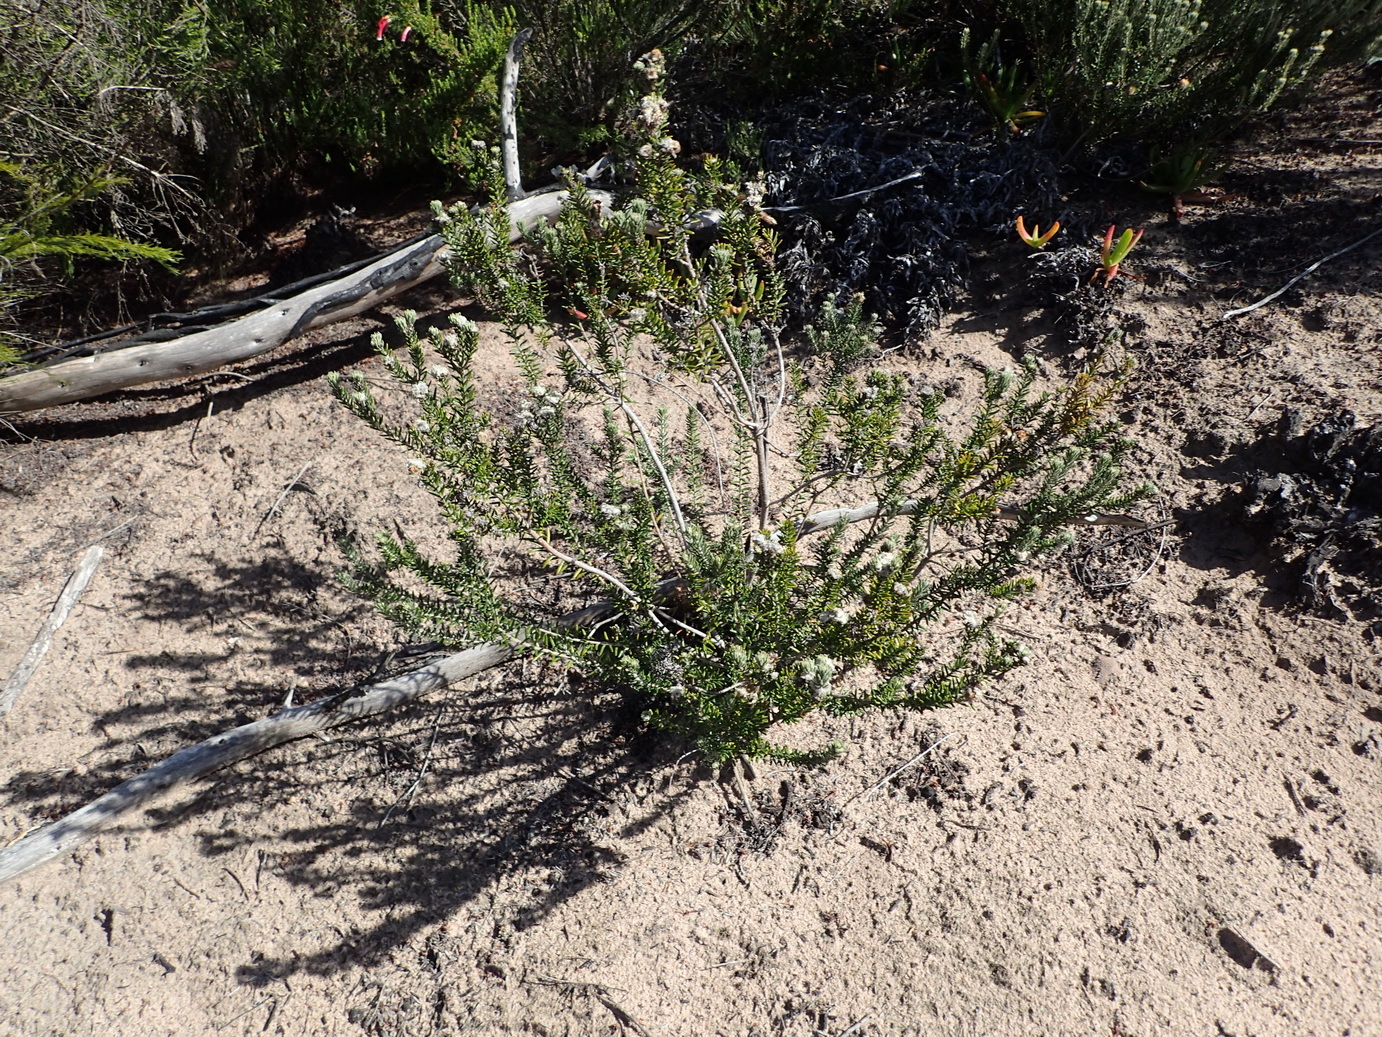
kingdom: Plantae
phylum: Tracheophyta
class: Magnoliopsida
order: Rosales
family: Rhamnaceae
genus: Trichocephalus
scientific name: Trichocephalus stipularis
